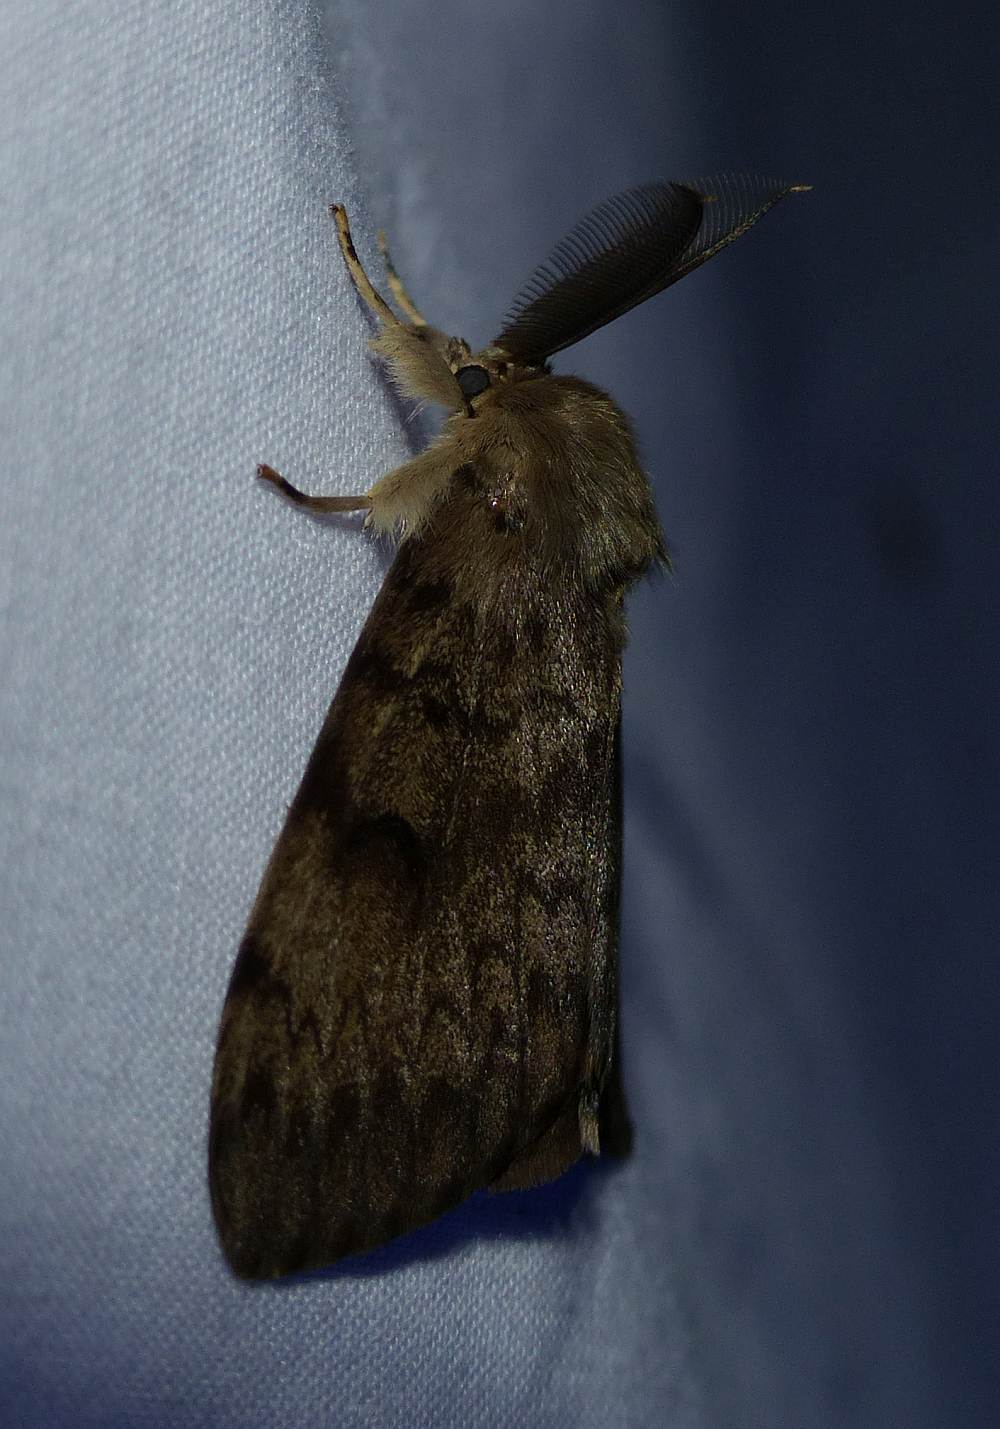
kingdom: Animalia
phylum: Arthropoda
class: Insecta
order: Lepidoptera
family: Erebidae
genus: Lymantria
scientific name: Lymantria dispar
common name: Gypsy moth
